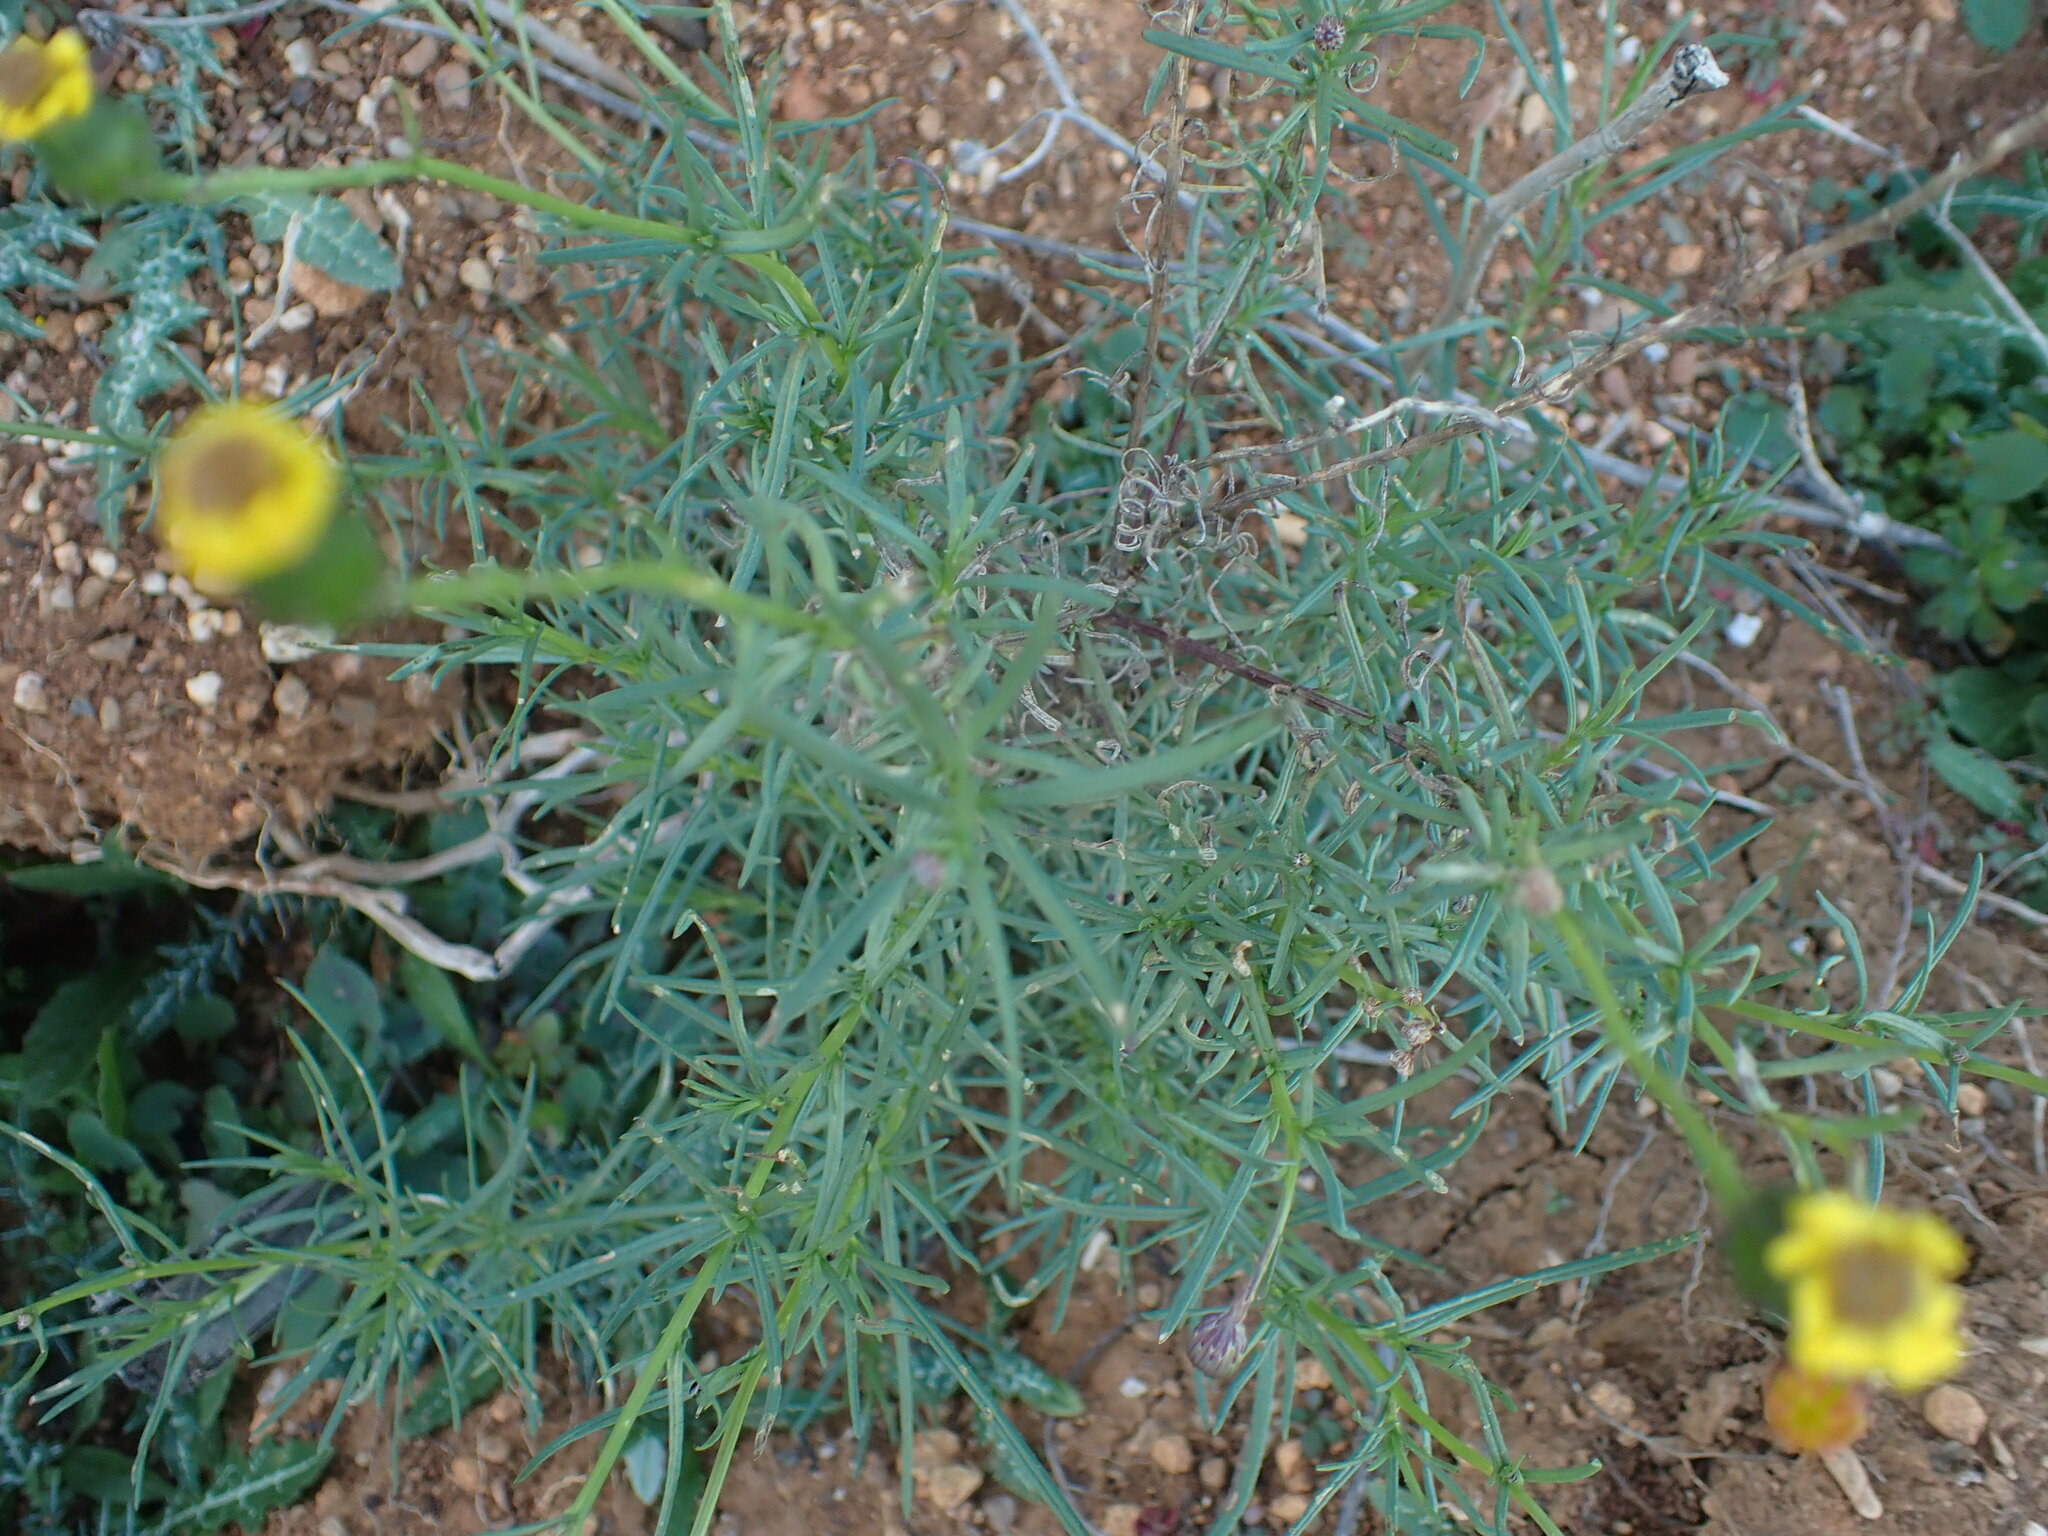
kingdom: Plantae
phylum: Tracheophyta
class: Magnoliopsida
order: Asterales
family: Asteraceae
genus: Senecio
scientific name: Senecio inaequidens
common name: Narrow-leaved ragwort
